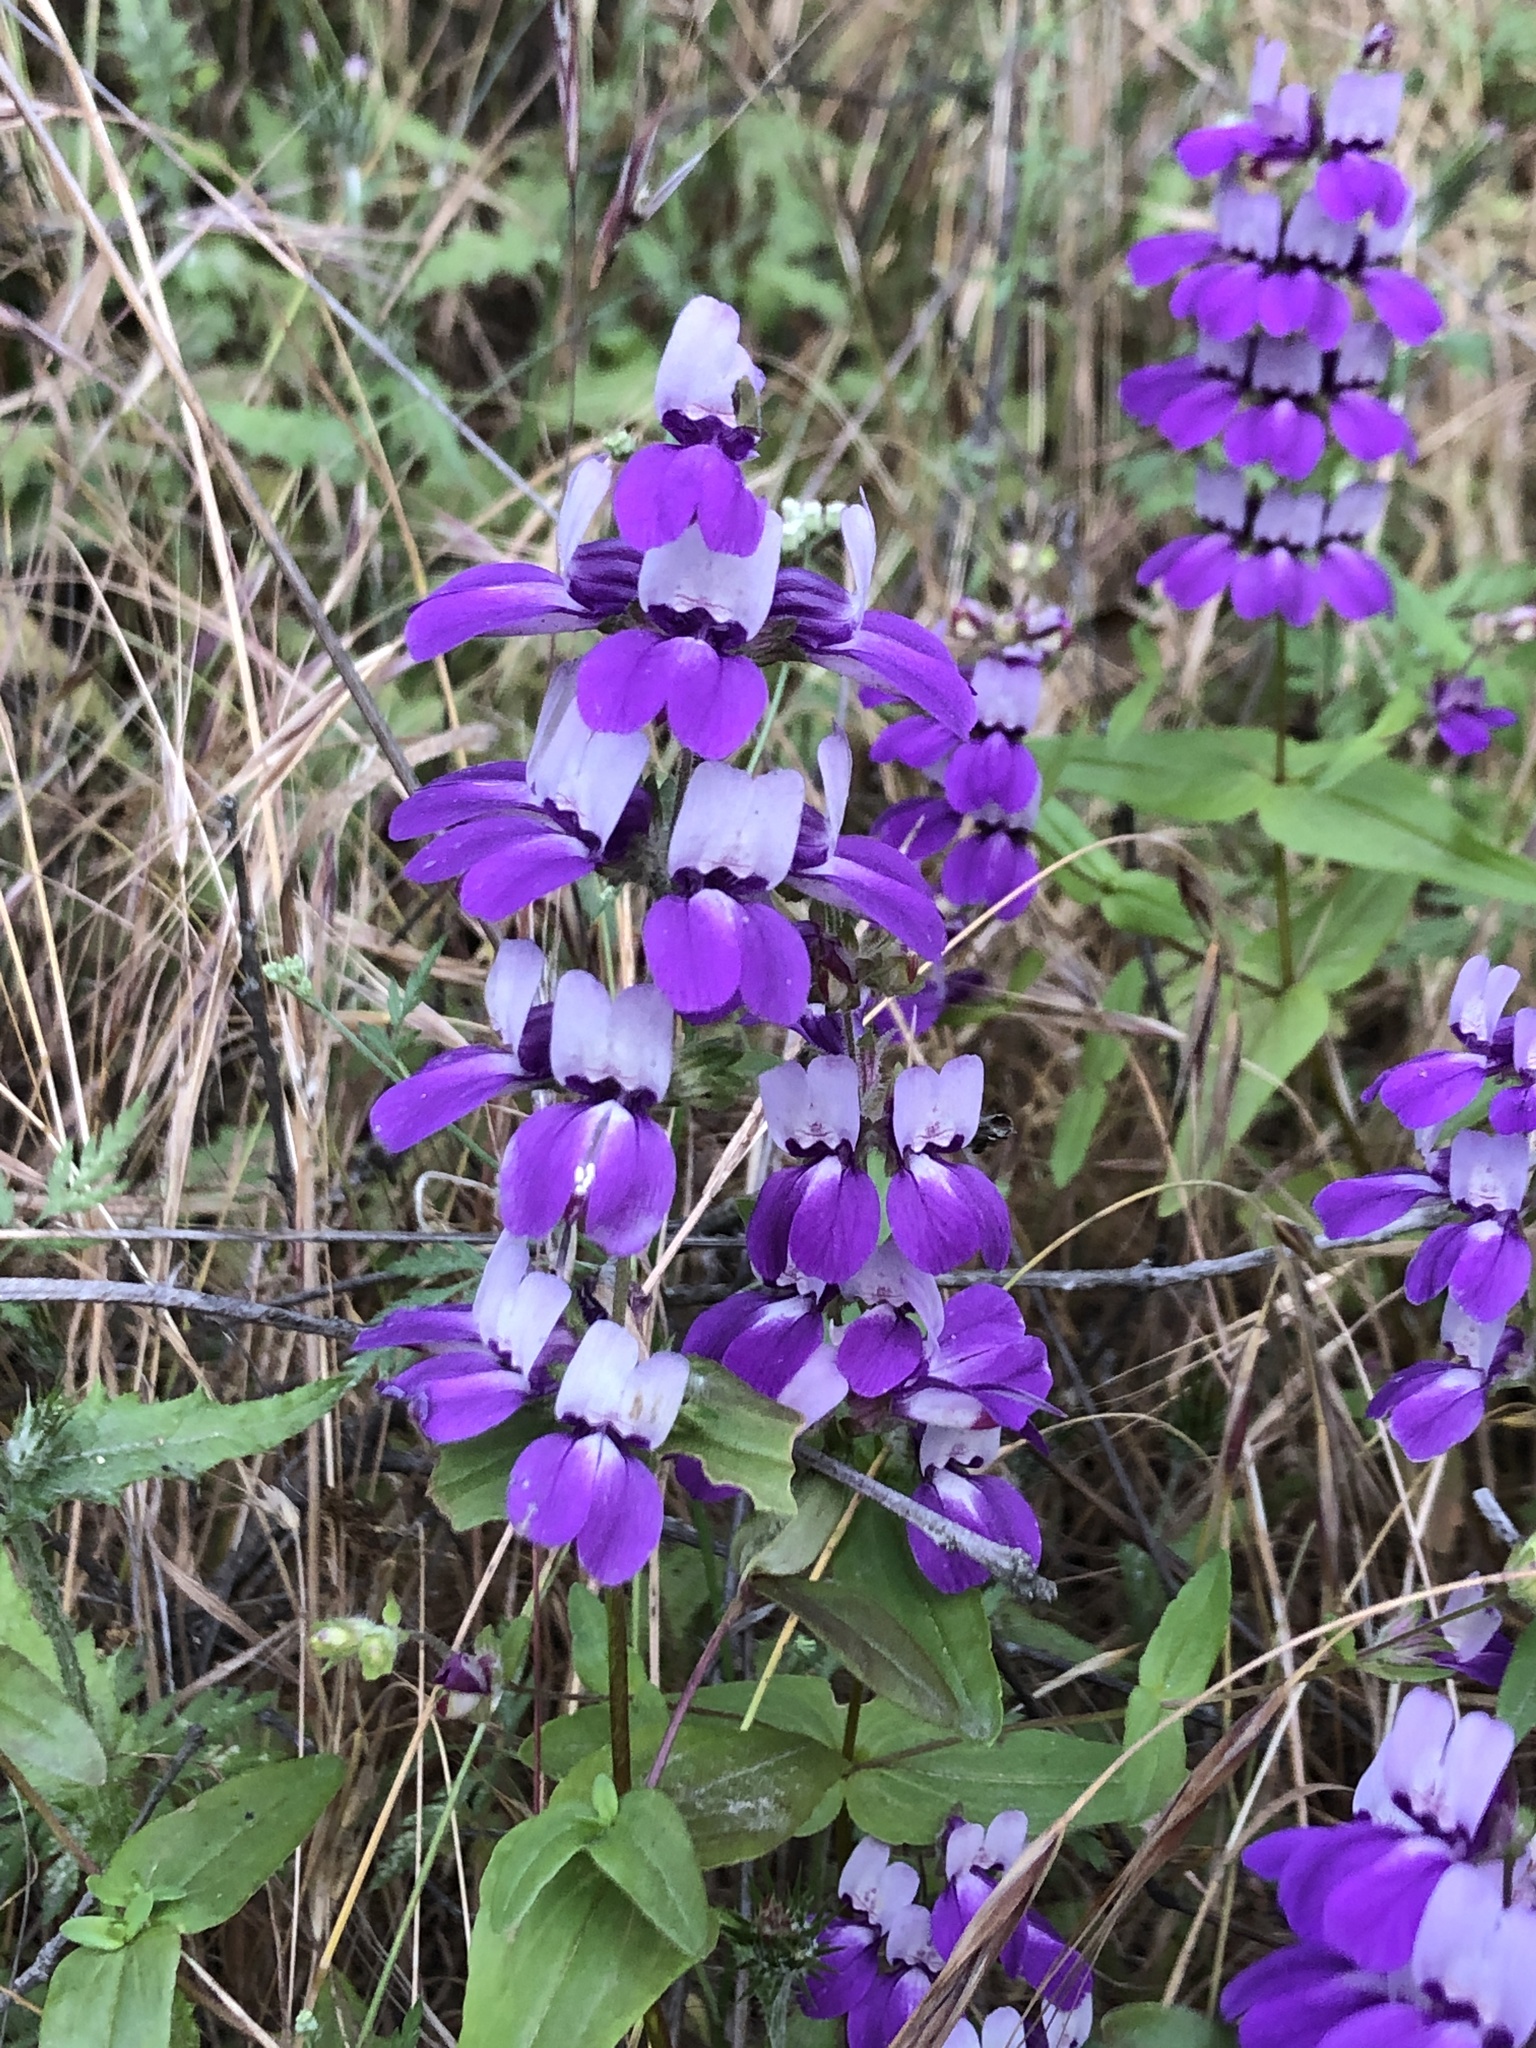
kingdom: Plantae
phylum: Tracheophyta
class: Magnoliopsida
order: Lamiales
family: Plantaginaceae
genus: Collinsia
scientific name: Collinsia heterophylla
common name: Chinese-houses
